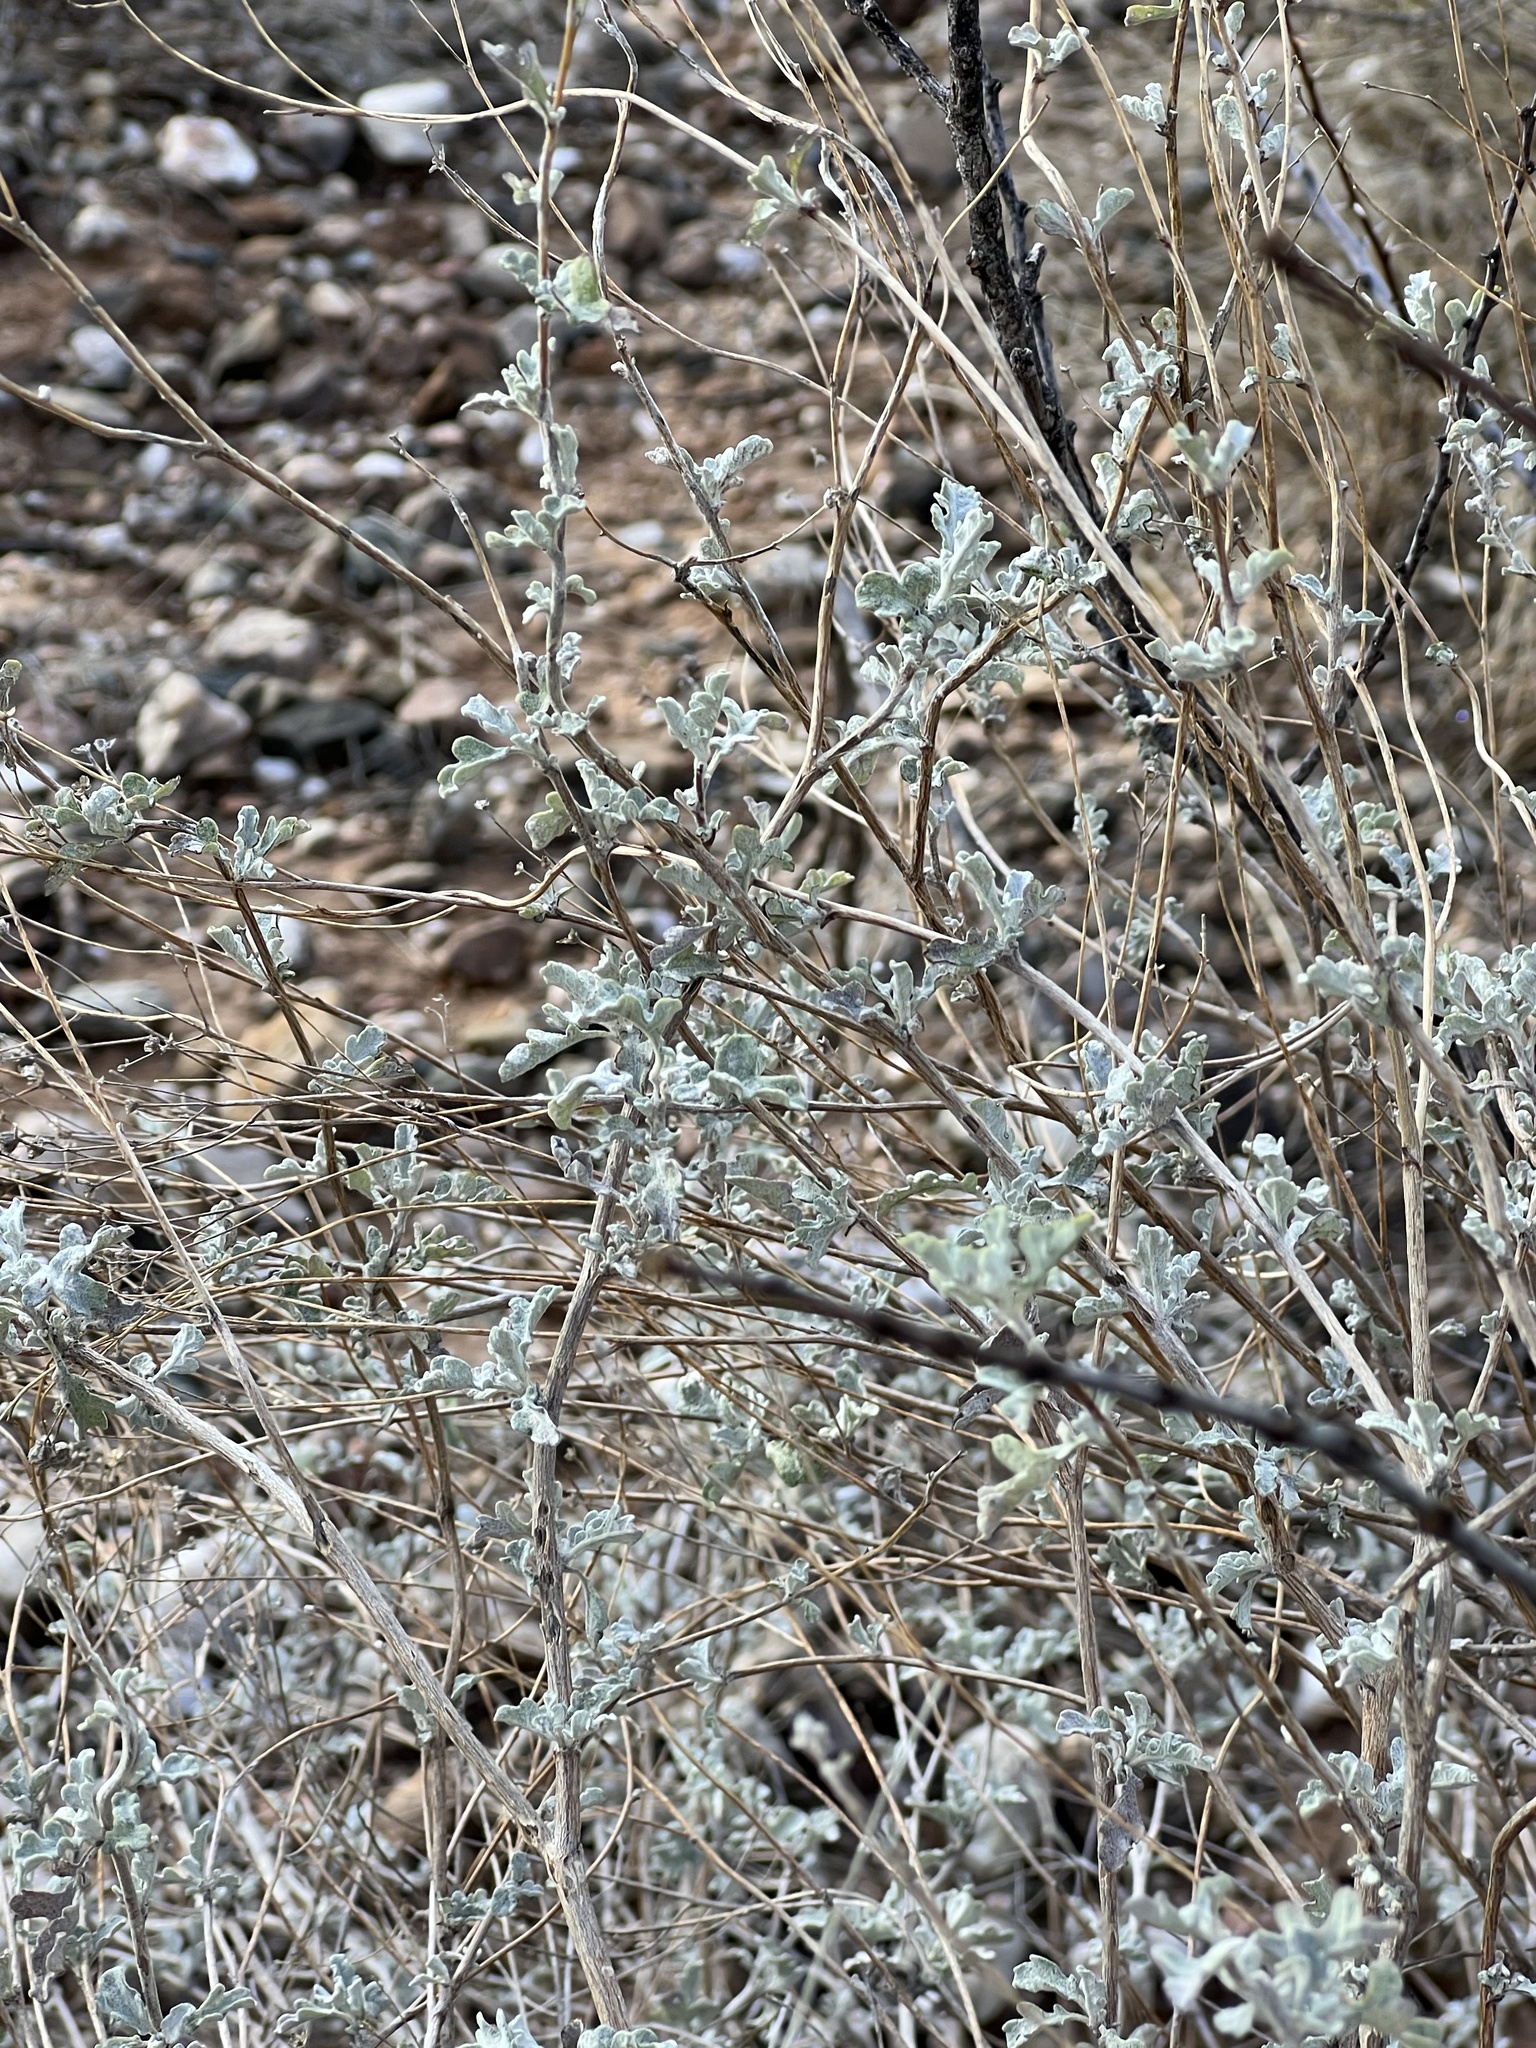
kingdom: Plantae
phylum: Tracheophyta
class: Magnoliopsida
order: Asterales
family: Asteraceae
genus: Parthenium
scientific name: Parthenium incanum
